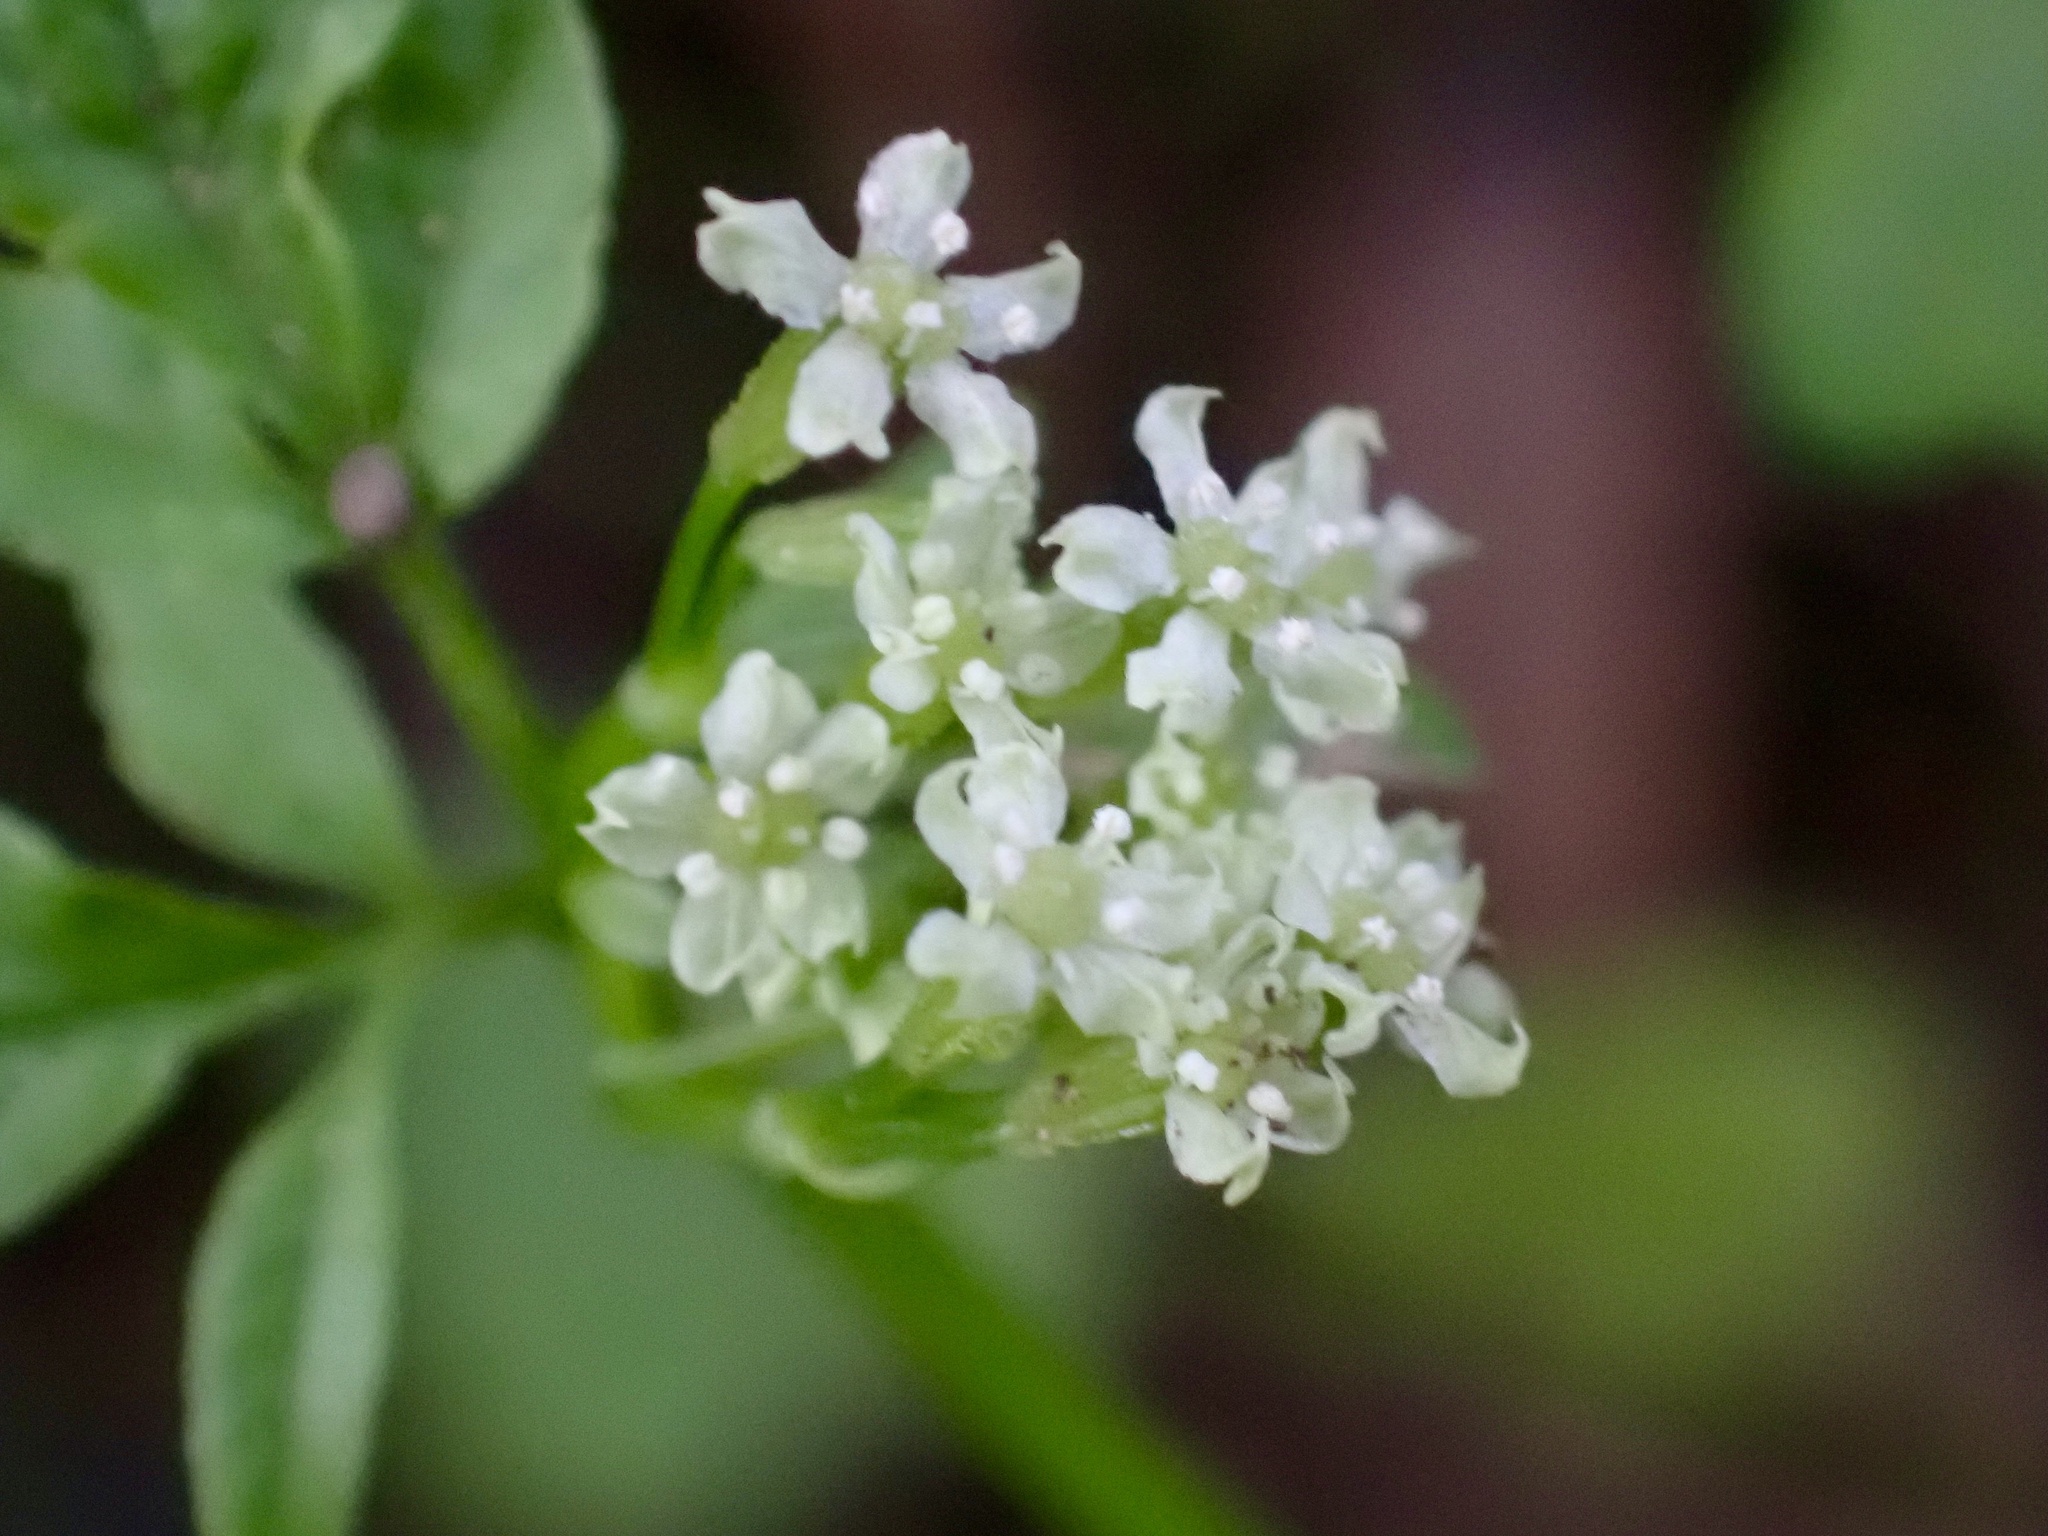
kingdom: Plantae
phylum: Tracheophyta
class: Magnoliopsida
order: Apiales
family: Apiaceae
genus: Osmorhiza
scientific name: Osmorhiza berteroi
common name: Mountain sweet cicely
